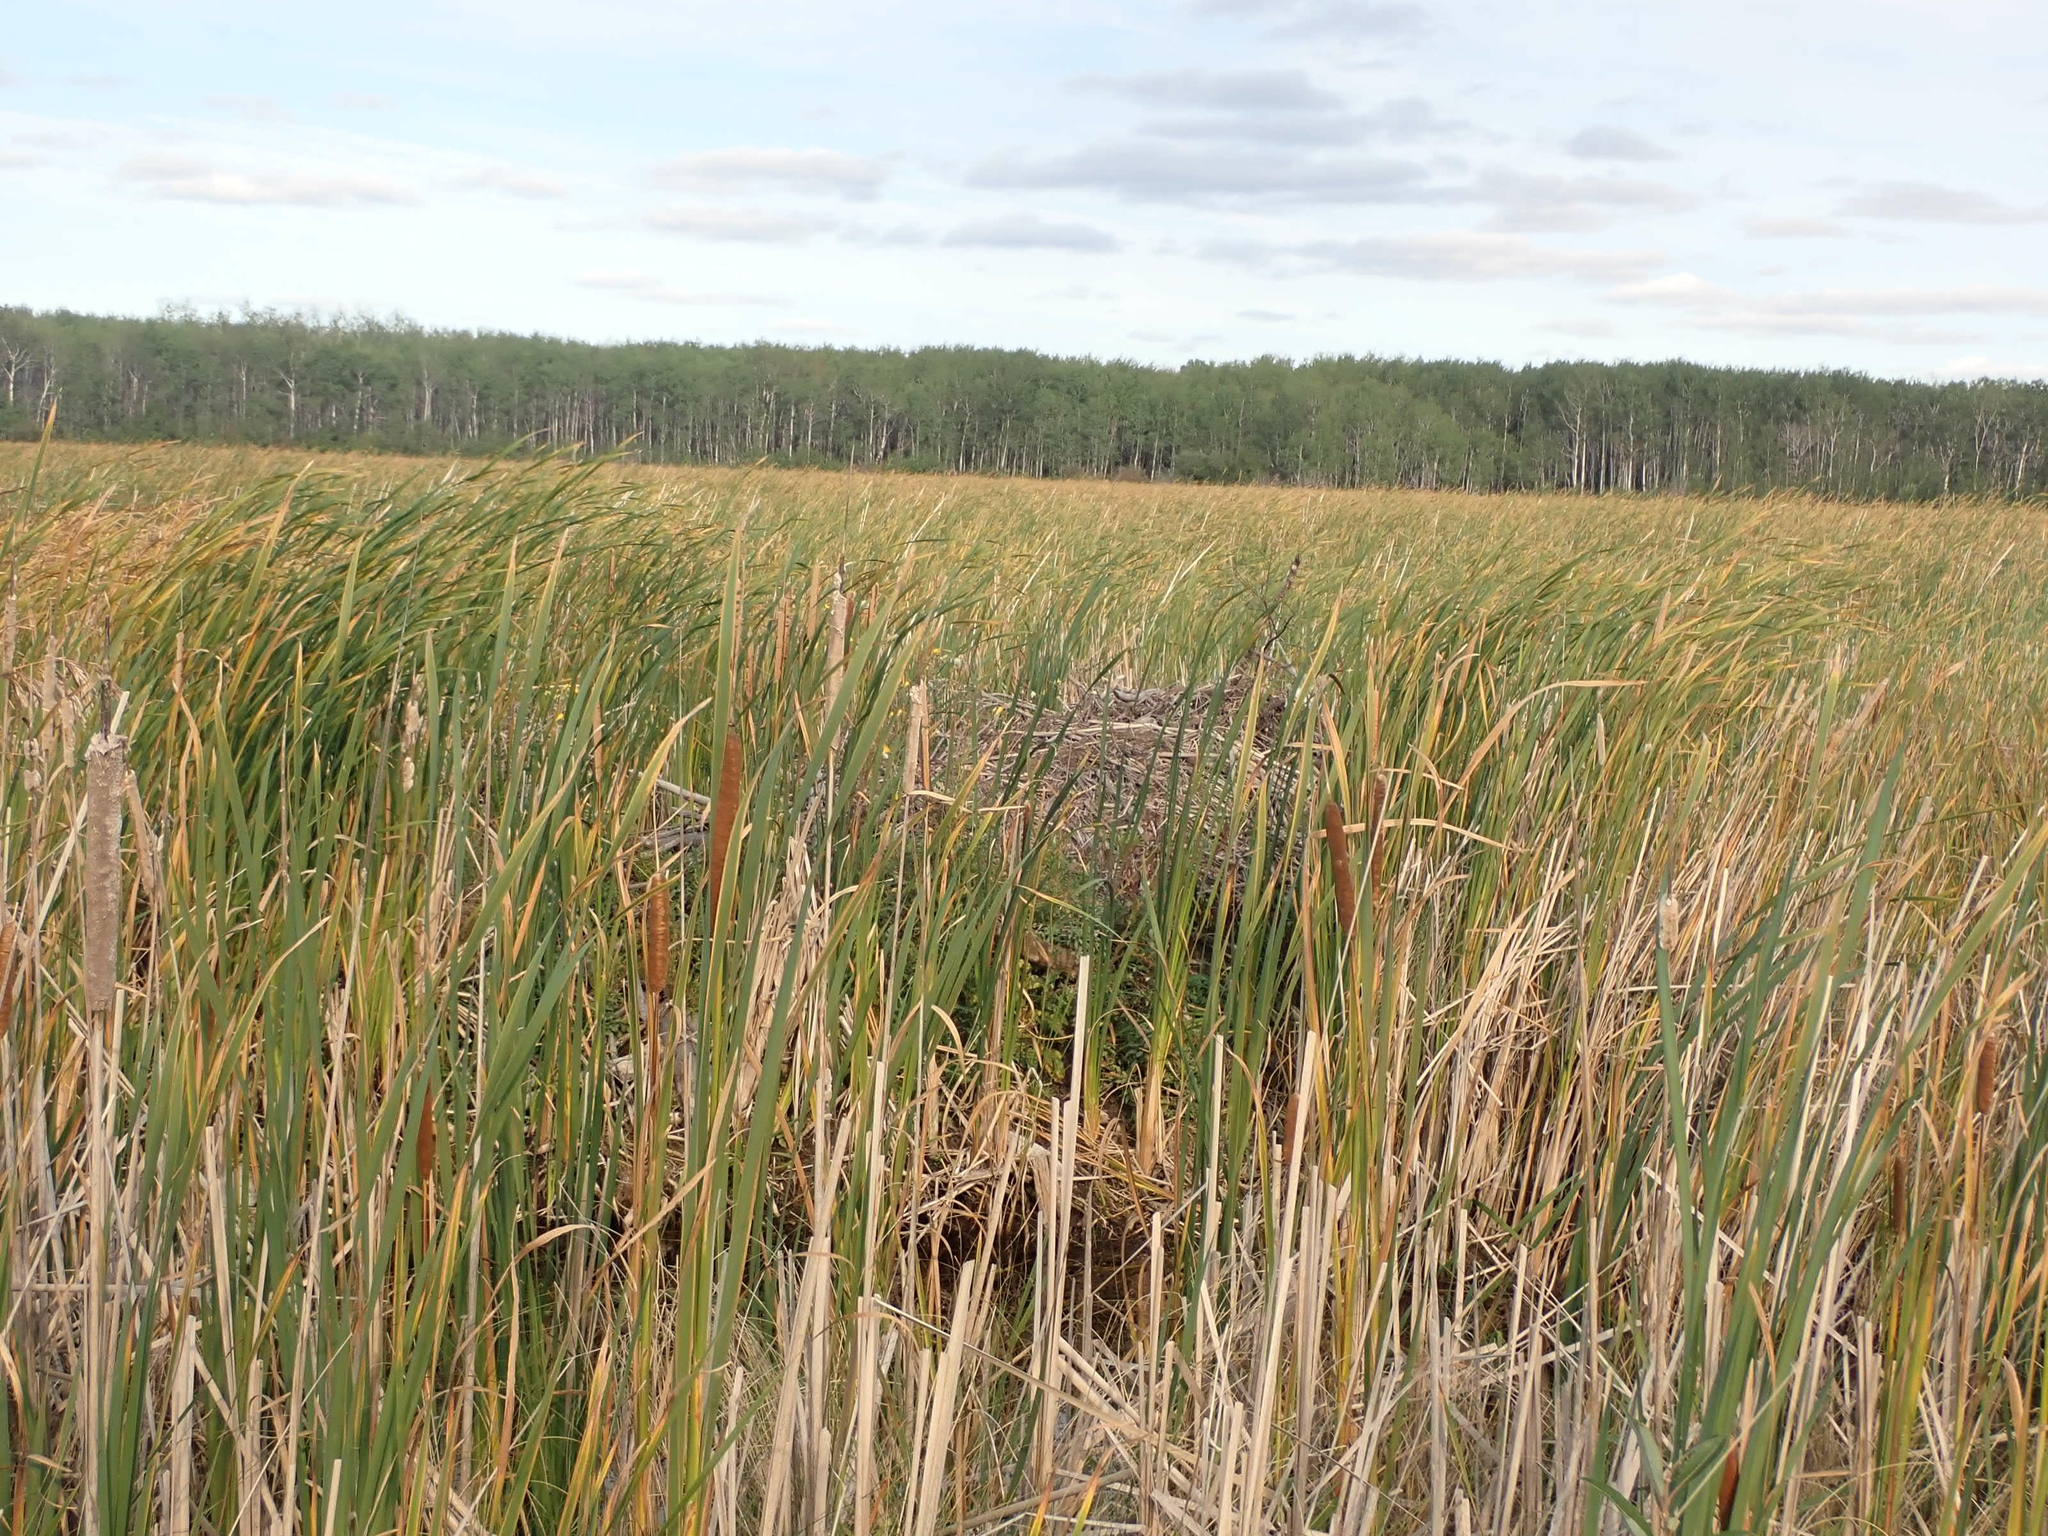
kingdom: Animalia
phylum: Chordata
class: Mammalia
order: Rodentia
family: Castoridae
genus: Castor
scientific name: Castor canadensis
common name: American beaver
